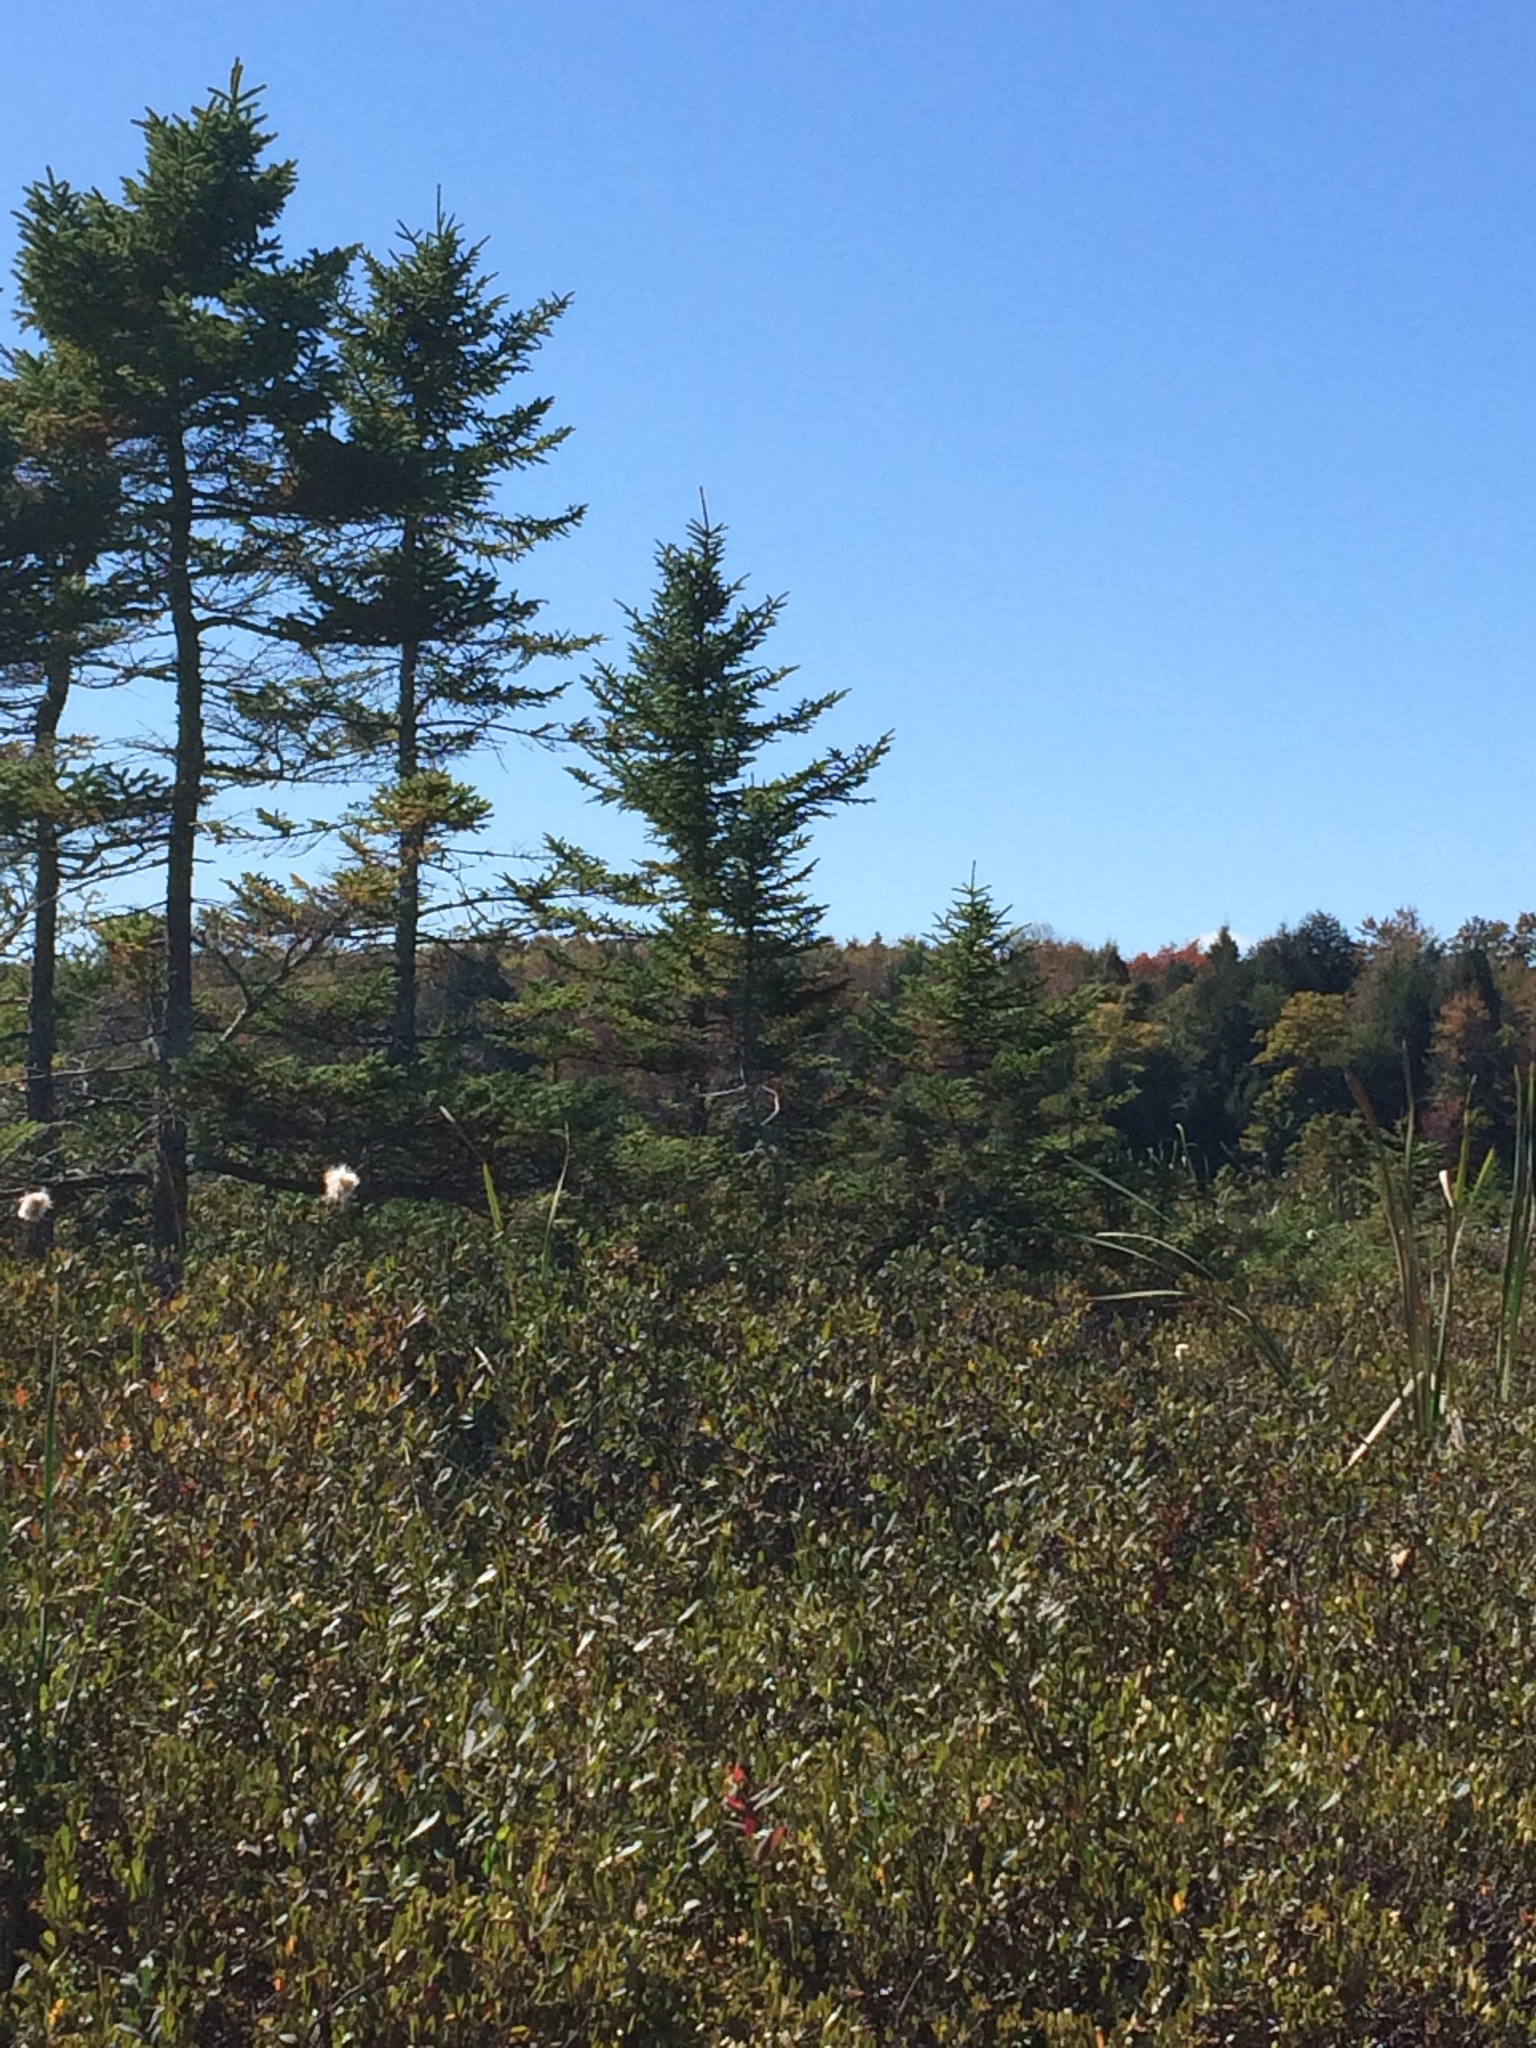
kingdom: Plantae
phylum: Tracheophyta
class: Pinopsida
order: Pinales
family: Pinaceae
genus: Picea
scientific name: Picea rubens
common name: Red spruce
